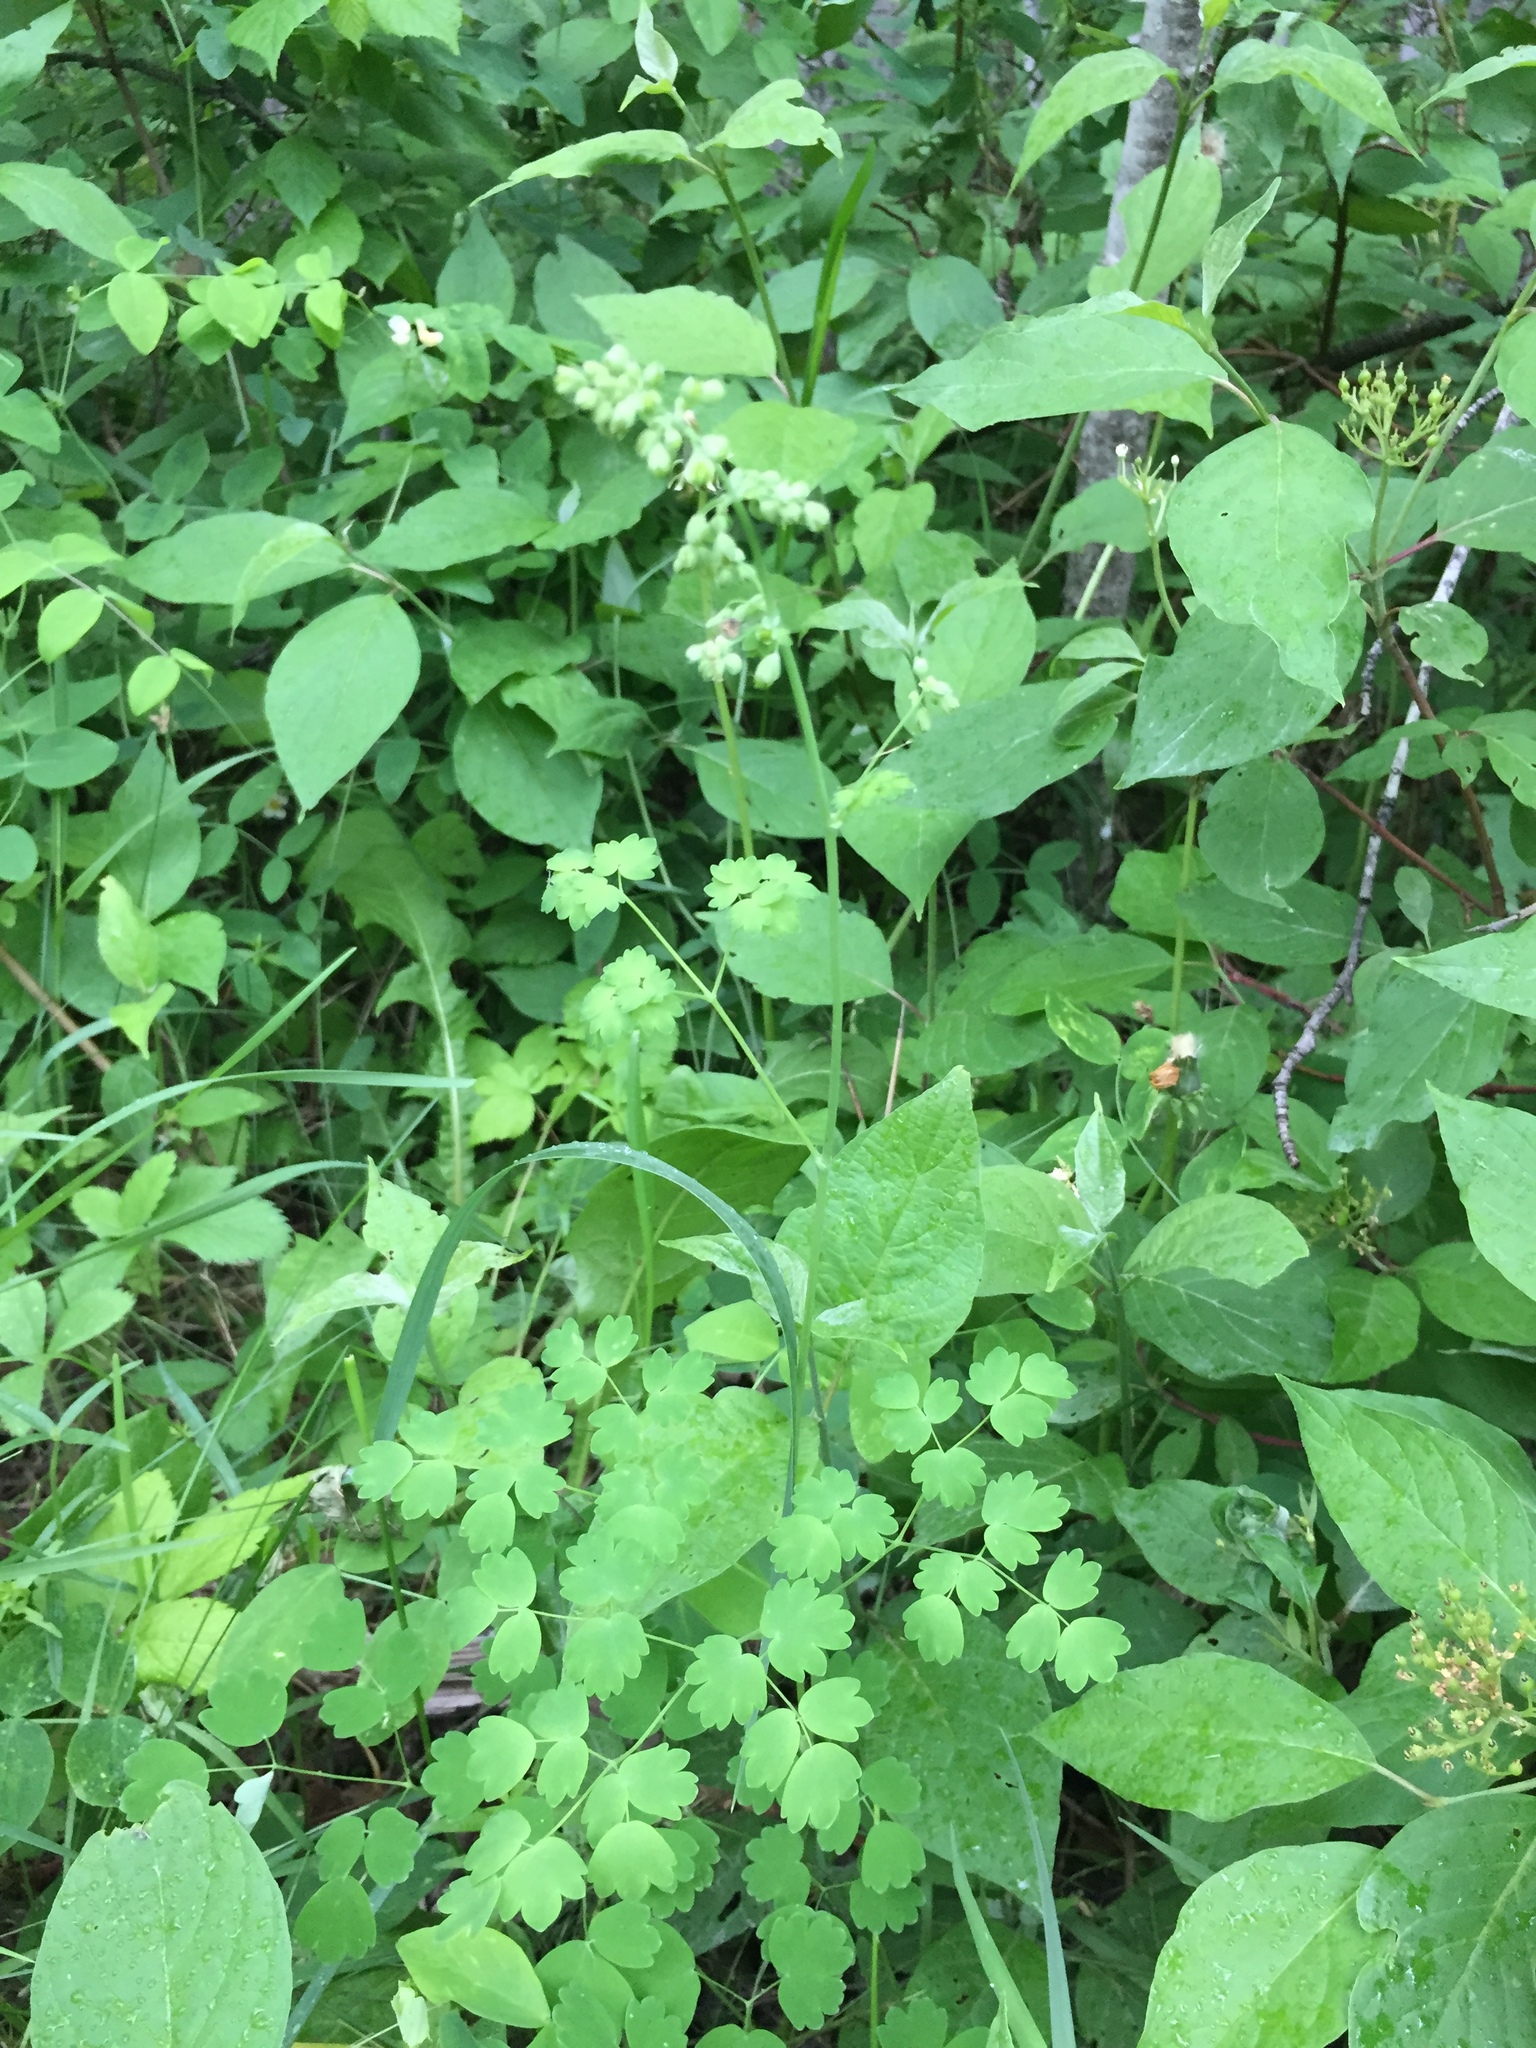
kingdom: Plantae
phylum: Tracheophyta
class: Magnoliopsida
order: Ranunculales
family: Ranunculaceae
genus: Thalictrum
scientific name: Thalictrum venulosum
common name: Early meadow-rue
